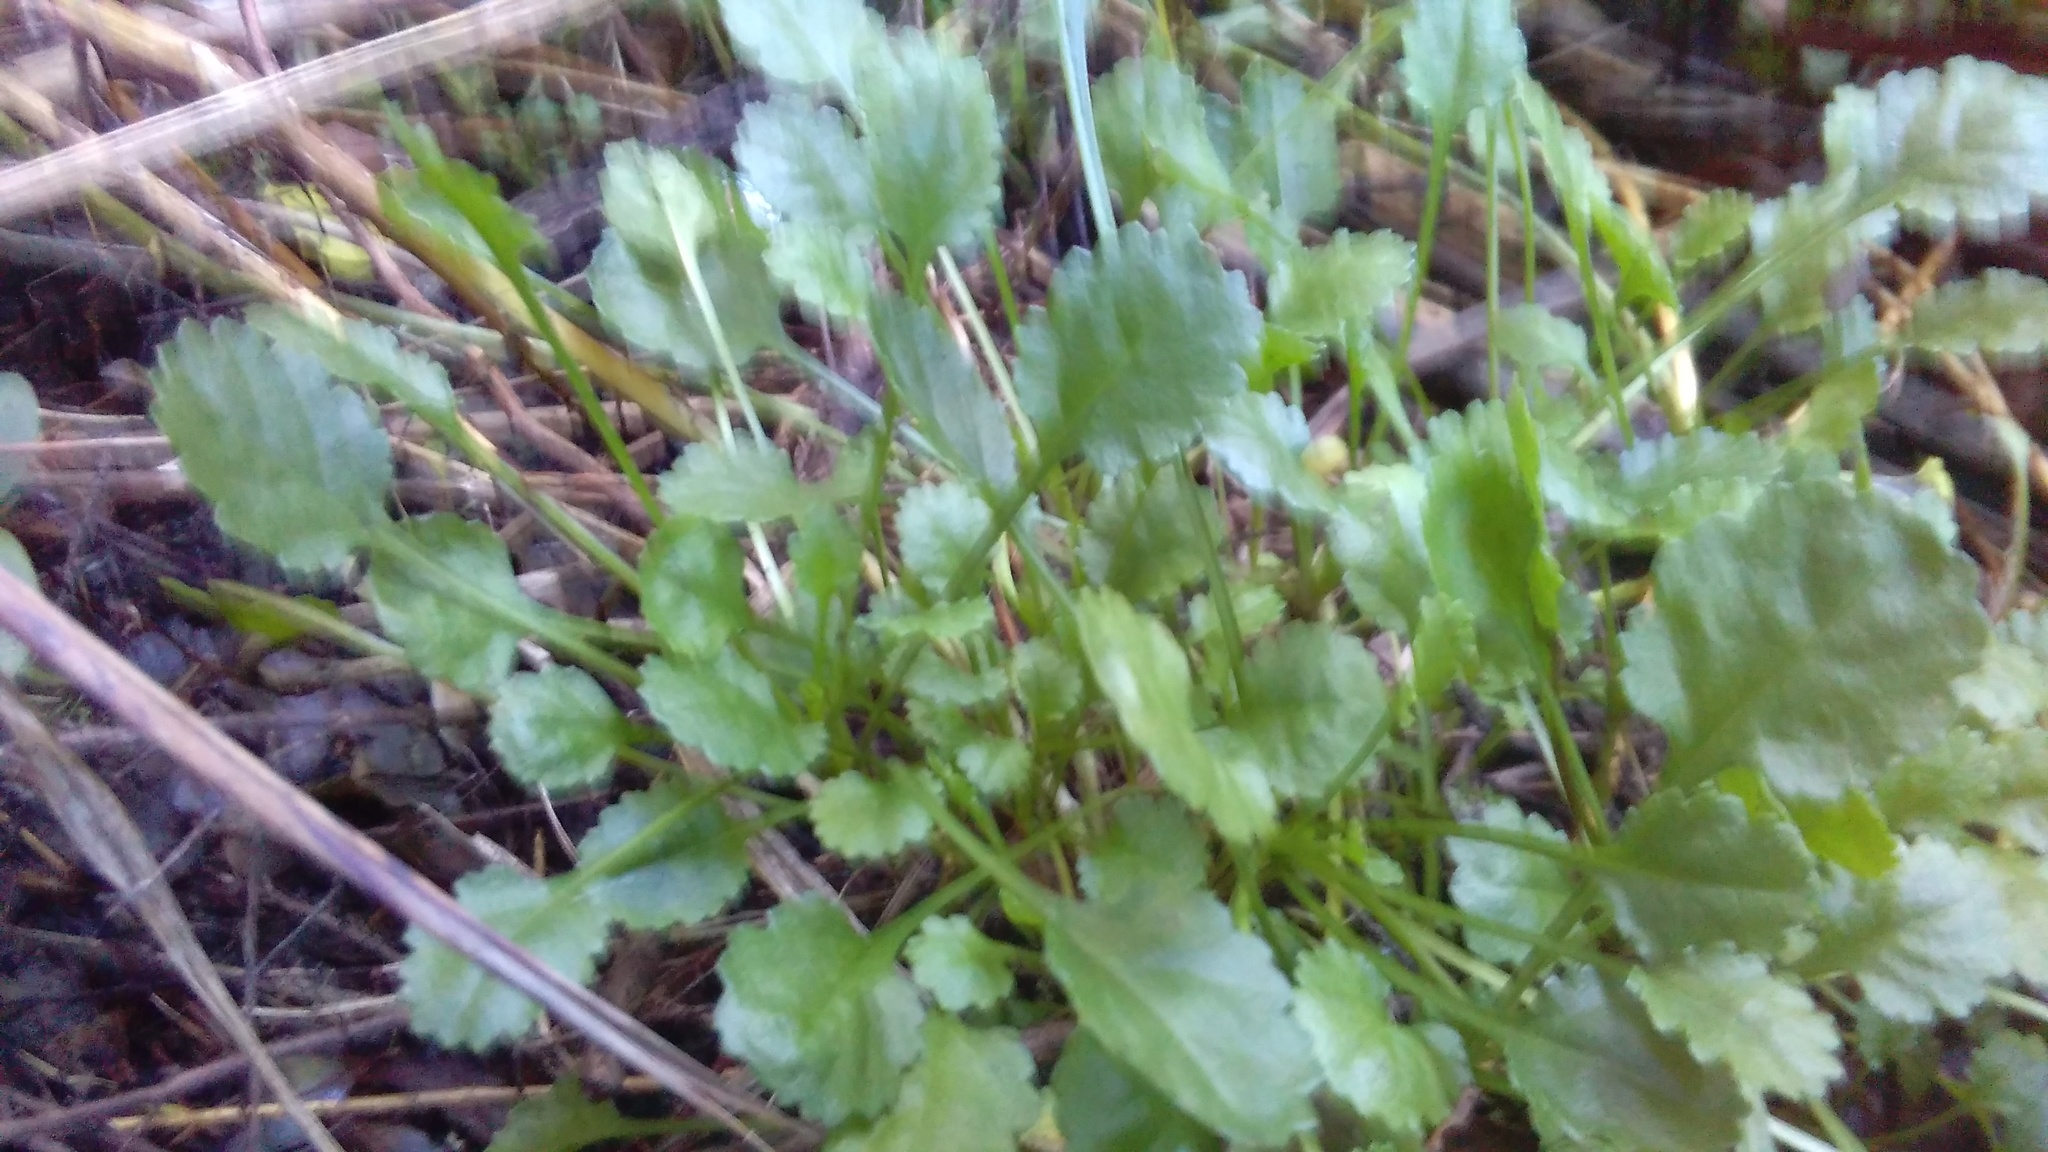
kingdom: Plantae
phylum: Tracheophyta
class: Magnoliopsida
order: Asterales
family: Asteraceae
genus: Leucanthemum
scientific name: Leucanthemum vulgare
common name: Oxeye daisy
